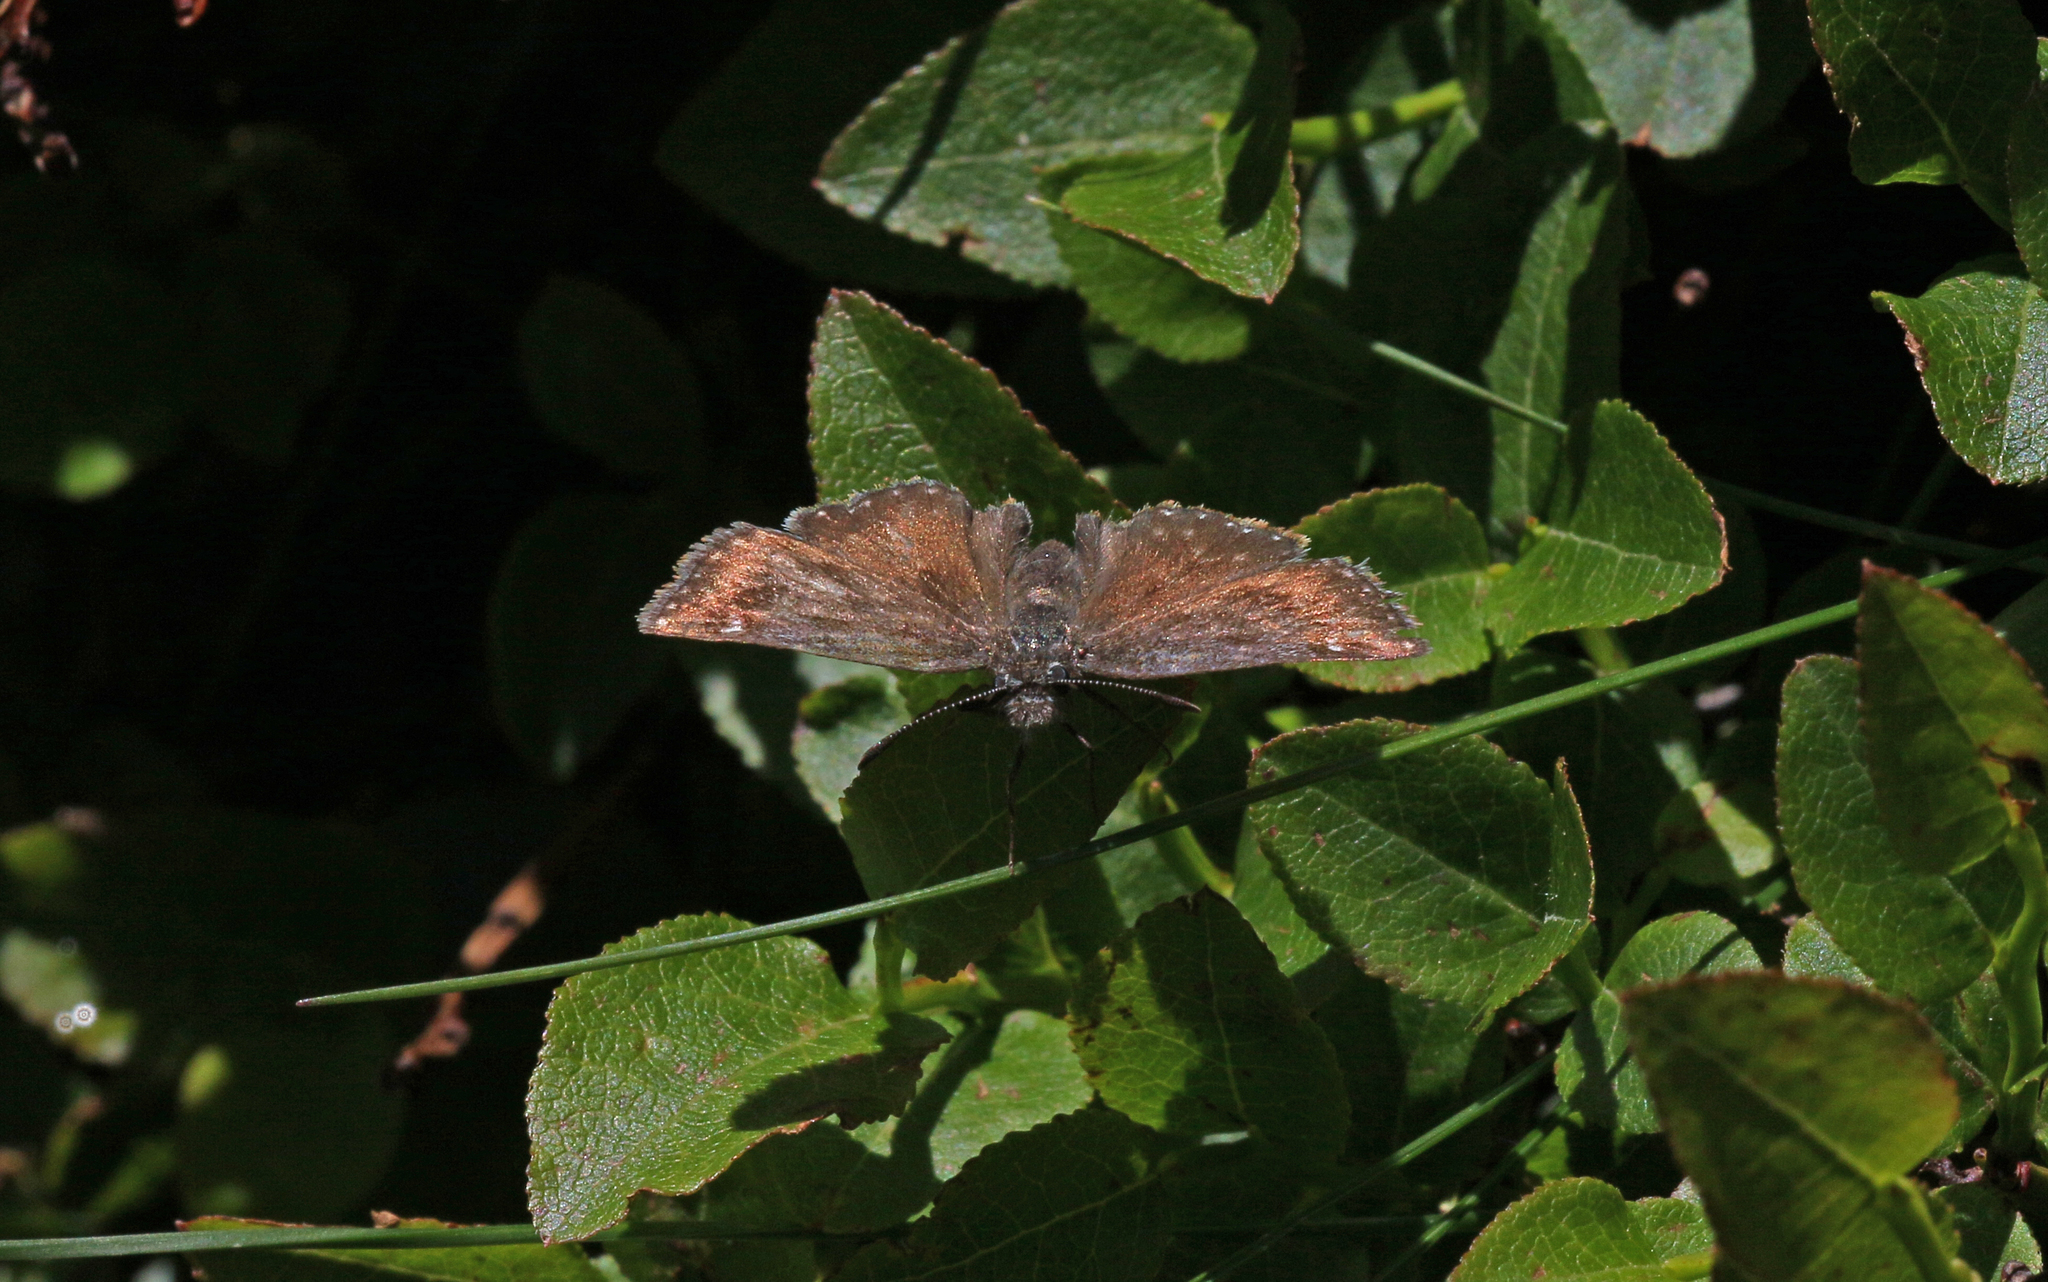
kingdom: Animalia
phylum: Arthropoda
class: Insecta
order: Lepidoptera
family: Hesperiidae
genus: Erynnis
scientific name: Erynnis tages
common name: Dingy skipper
